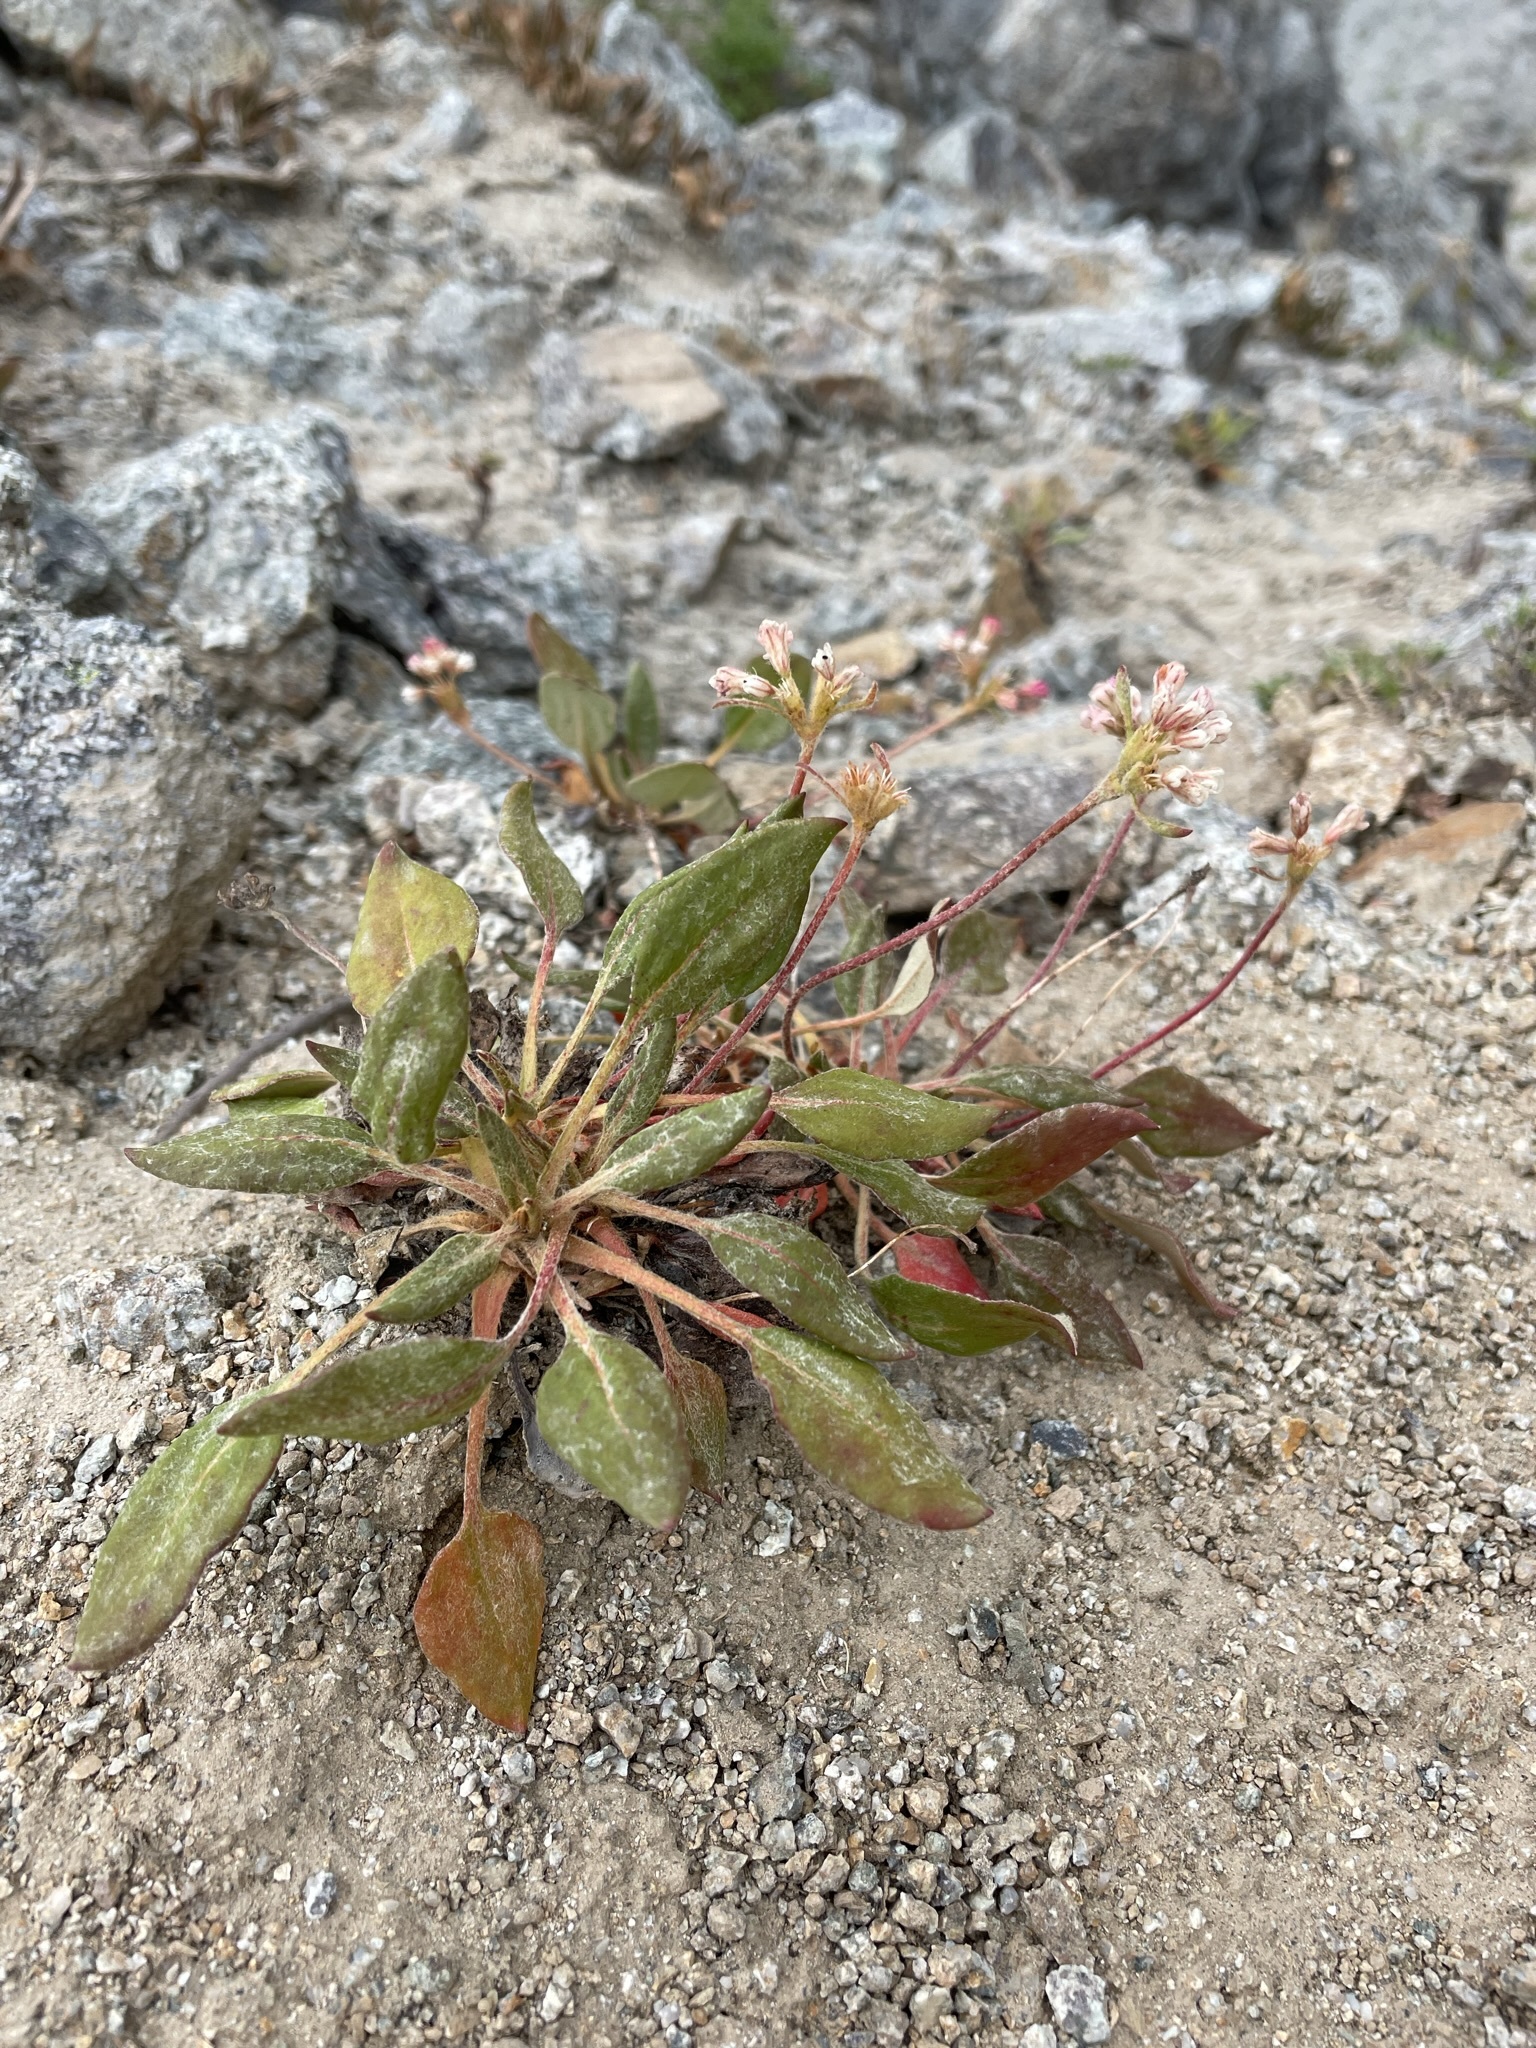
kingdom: Plantae
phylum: Tracheophyta
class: Magnoliopsida
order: Caryophyllales
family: Polygonaceae
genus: Eriogonum
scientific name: Eriogonum pyrolifolium
